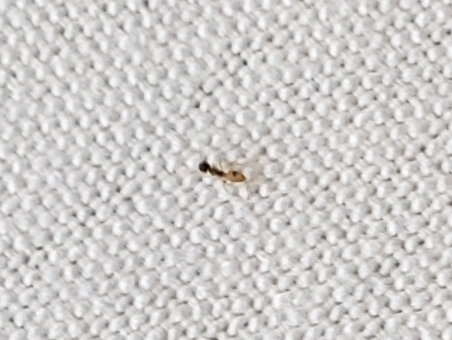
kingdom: Animalia
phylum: Arthropoda
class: Insecta
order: Hymenoptera
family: Formicidae
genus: Tapinoma
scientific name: Tapinoma melanocephalum
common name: Ghost ant
